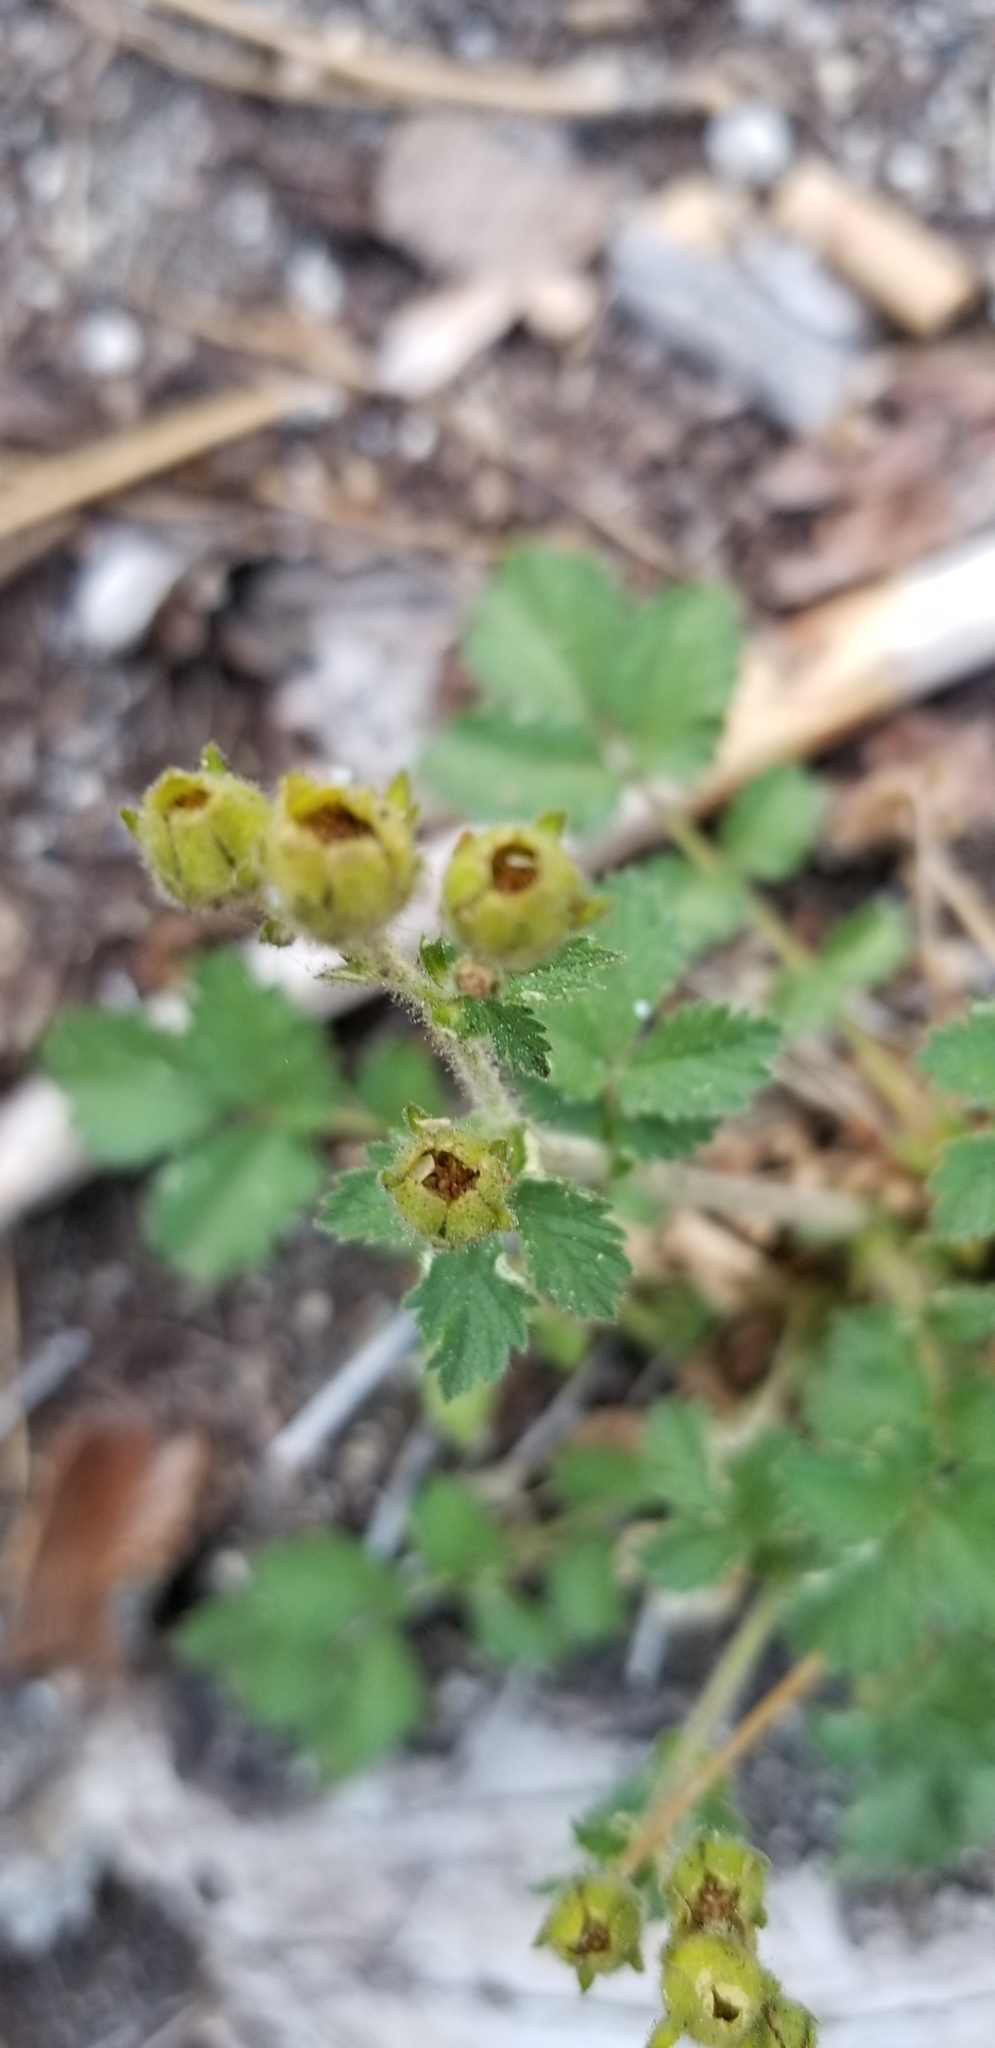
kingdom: Plantae
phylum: Tracheophyta
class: Magnoliopsida
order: Rosales
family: Rosaceae
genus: Drymocallis
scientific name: Drymocallis glandulosa
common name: Sticky cinquefoil
